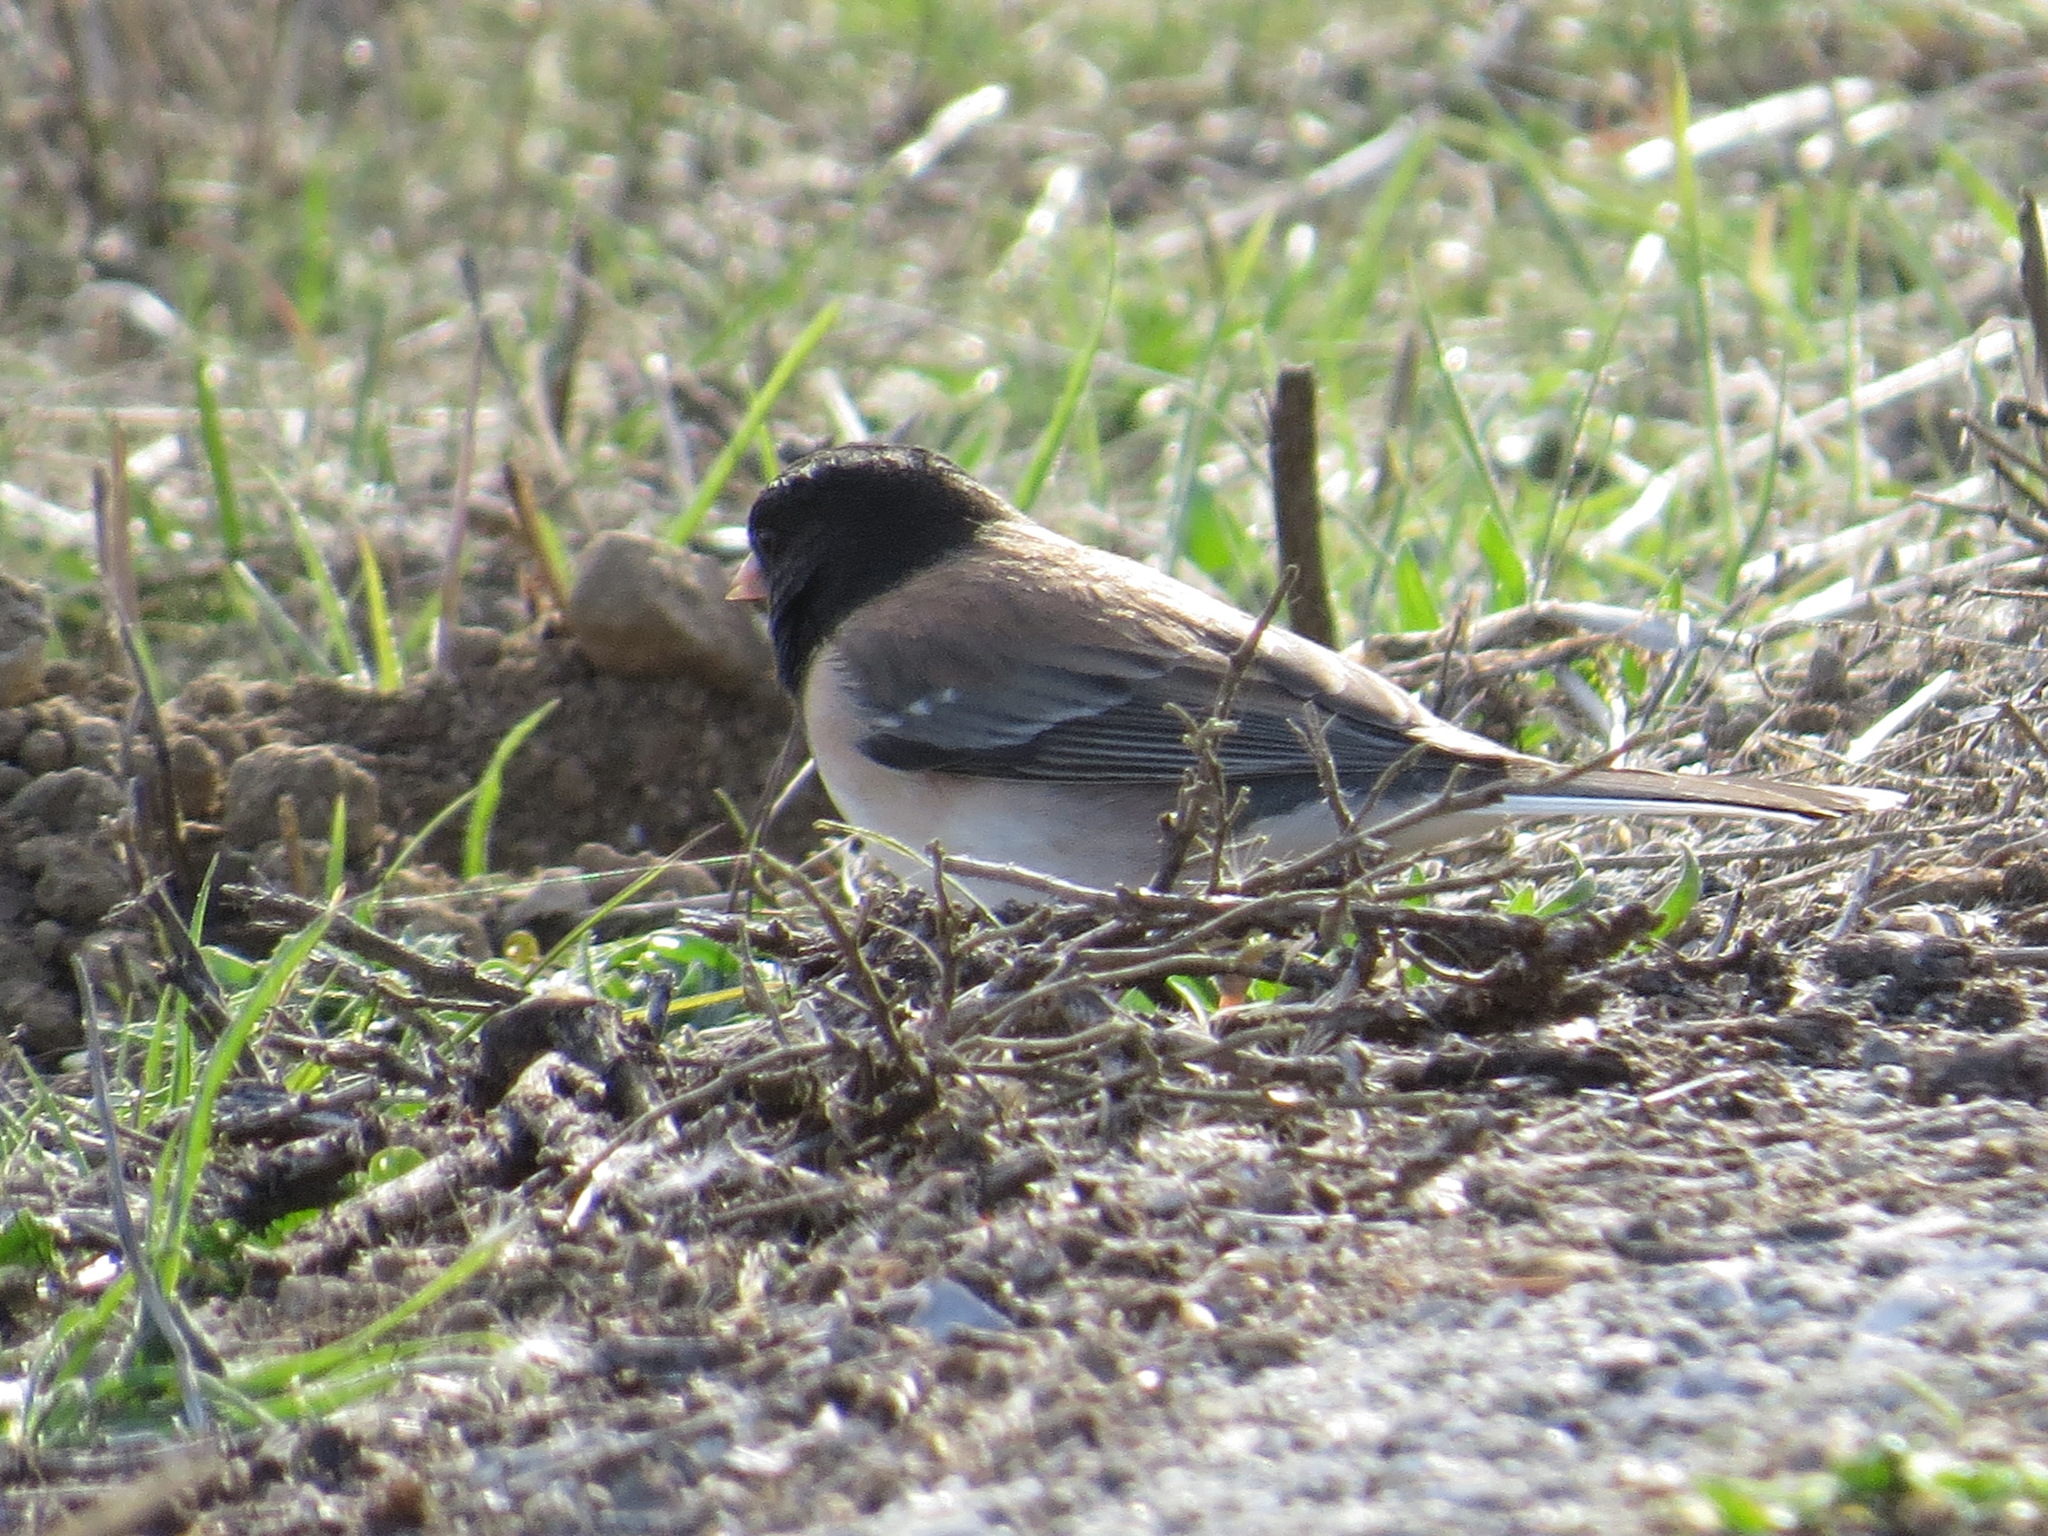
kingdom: Animalia
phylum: Chordata
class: Aves
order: Passeriformes
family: Passerellidae
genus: Junco
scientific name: Junco hyemalis
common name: Dark-eyed junco
